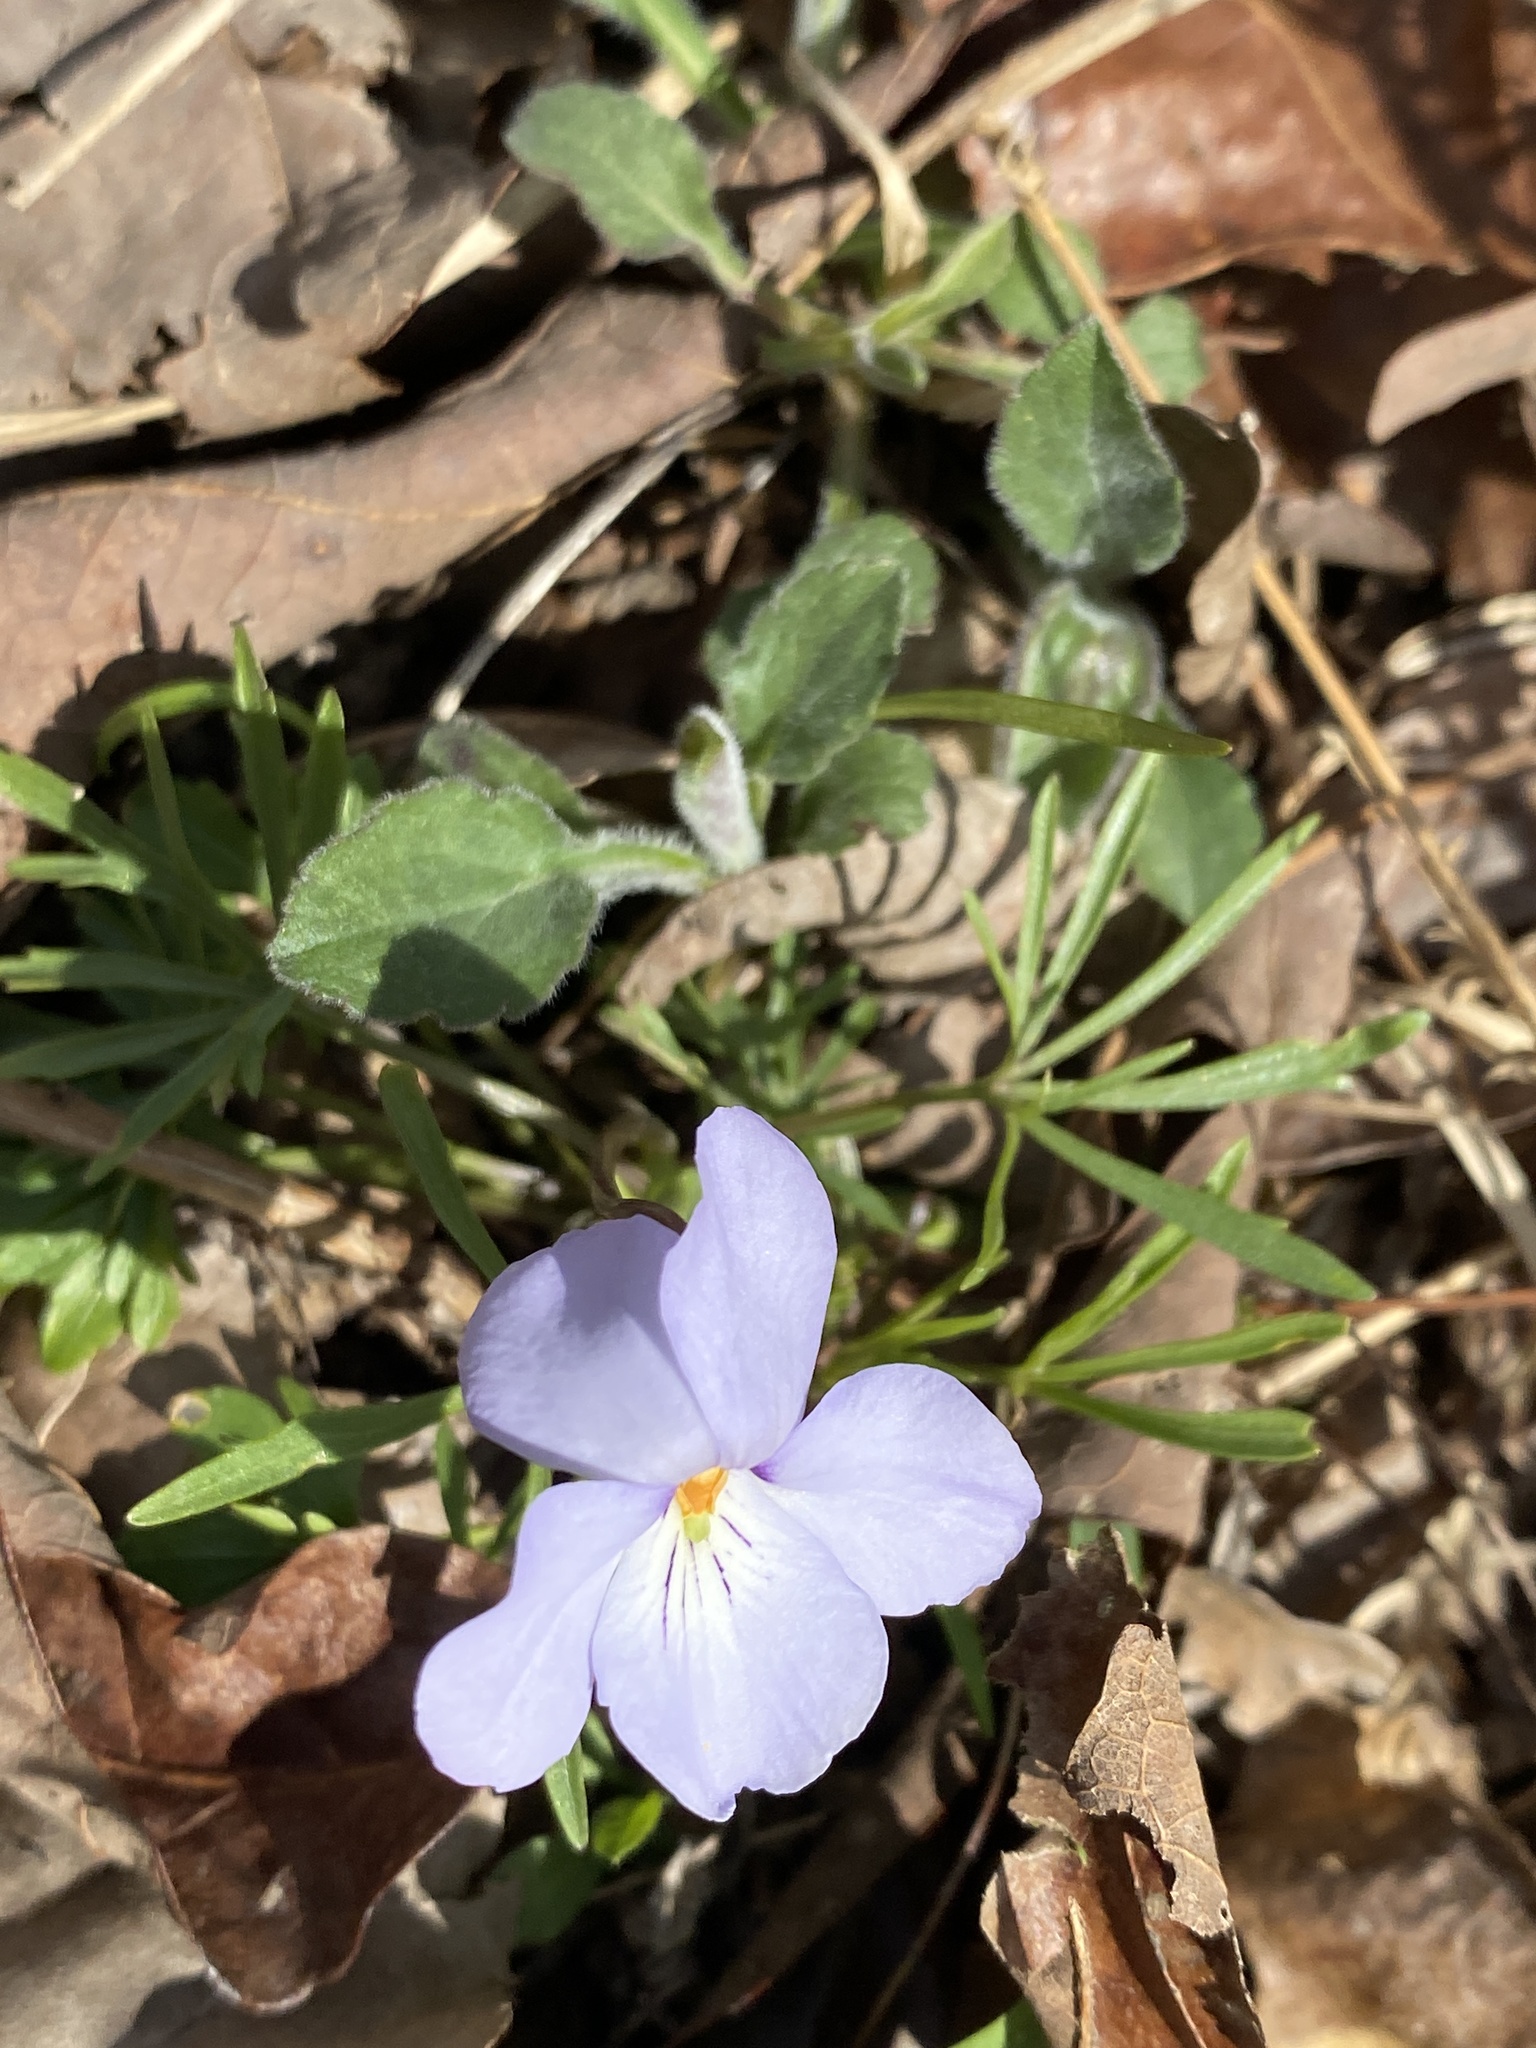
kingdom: Plantae
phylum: Tracheophyta
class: Magnoliopsida
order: Malpighiales
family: Violaceae
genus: Viola
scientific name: Viola pedata
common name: Pansy violet
